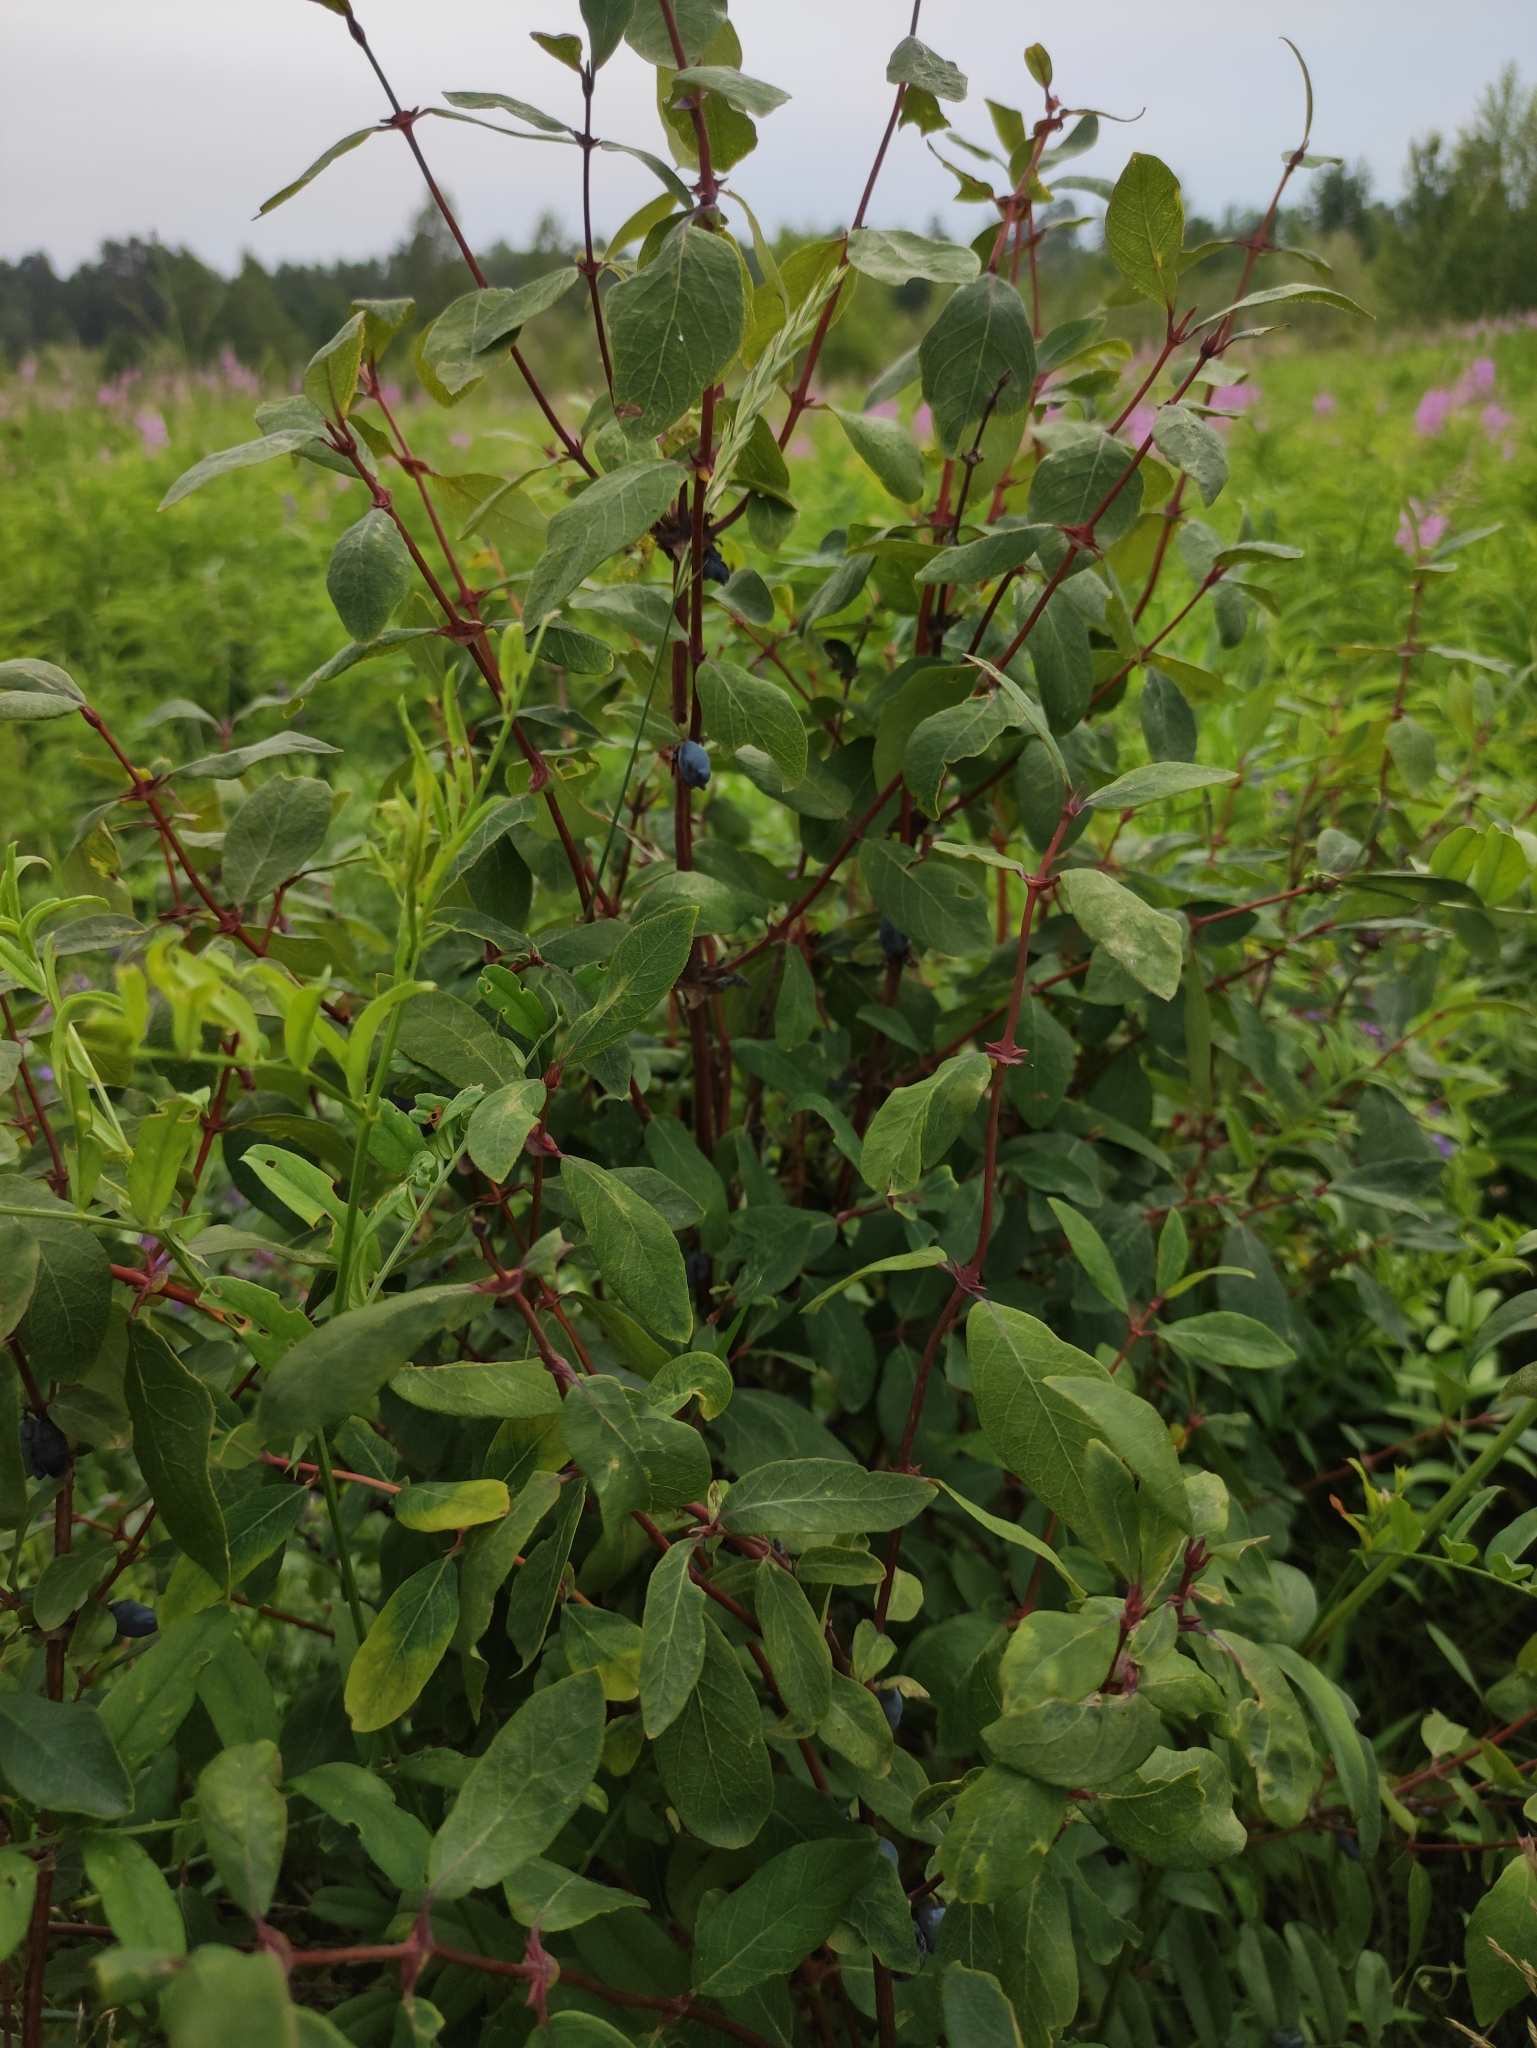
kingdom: Plantae
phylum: Tracheophyta
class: Magnoliopsida
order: Dipsacales
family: Caprifoliaceae
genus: Lonicera
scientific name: Lonicera caerulea
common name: Blue honeysuckle
